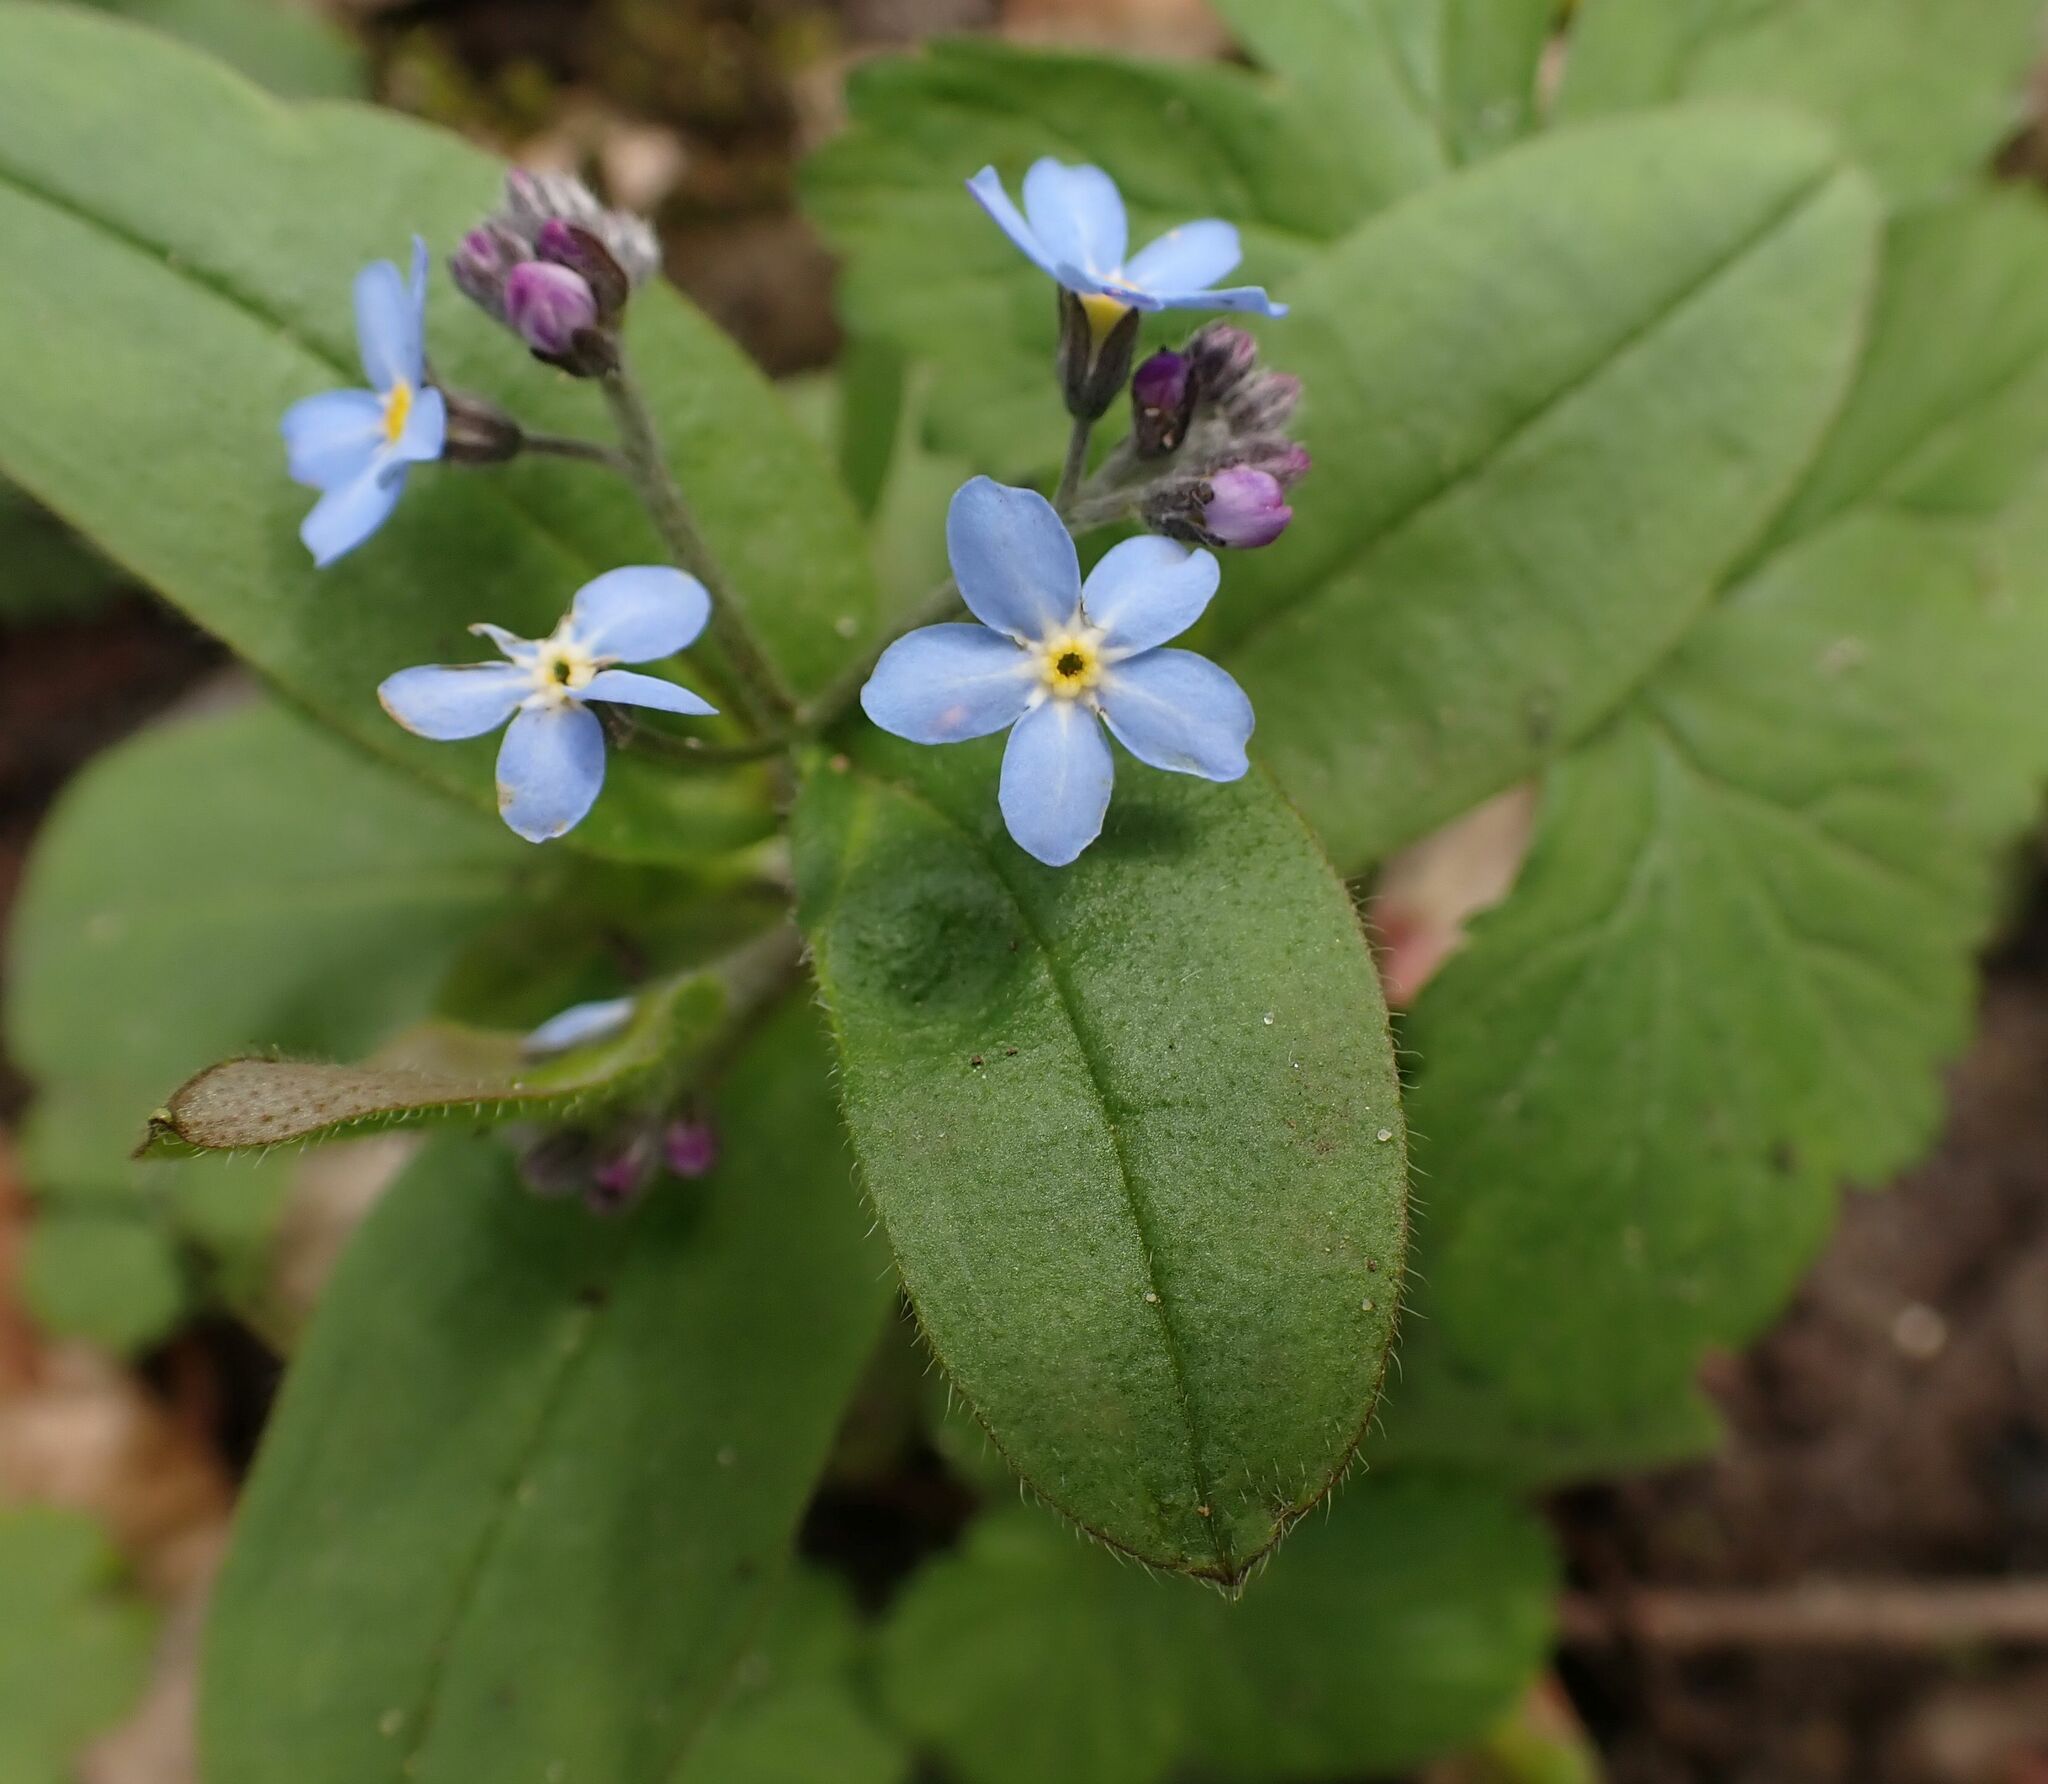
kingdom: Plantae
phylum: Tracheophyta
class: Magnoliopsida
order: Boraginales
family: Boraginaceae
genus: Myosotis
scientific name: Myosotis sylvatica
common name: Wood forget-me-not
